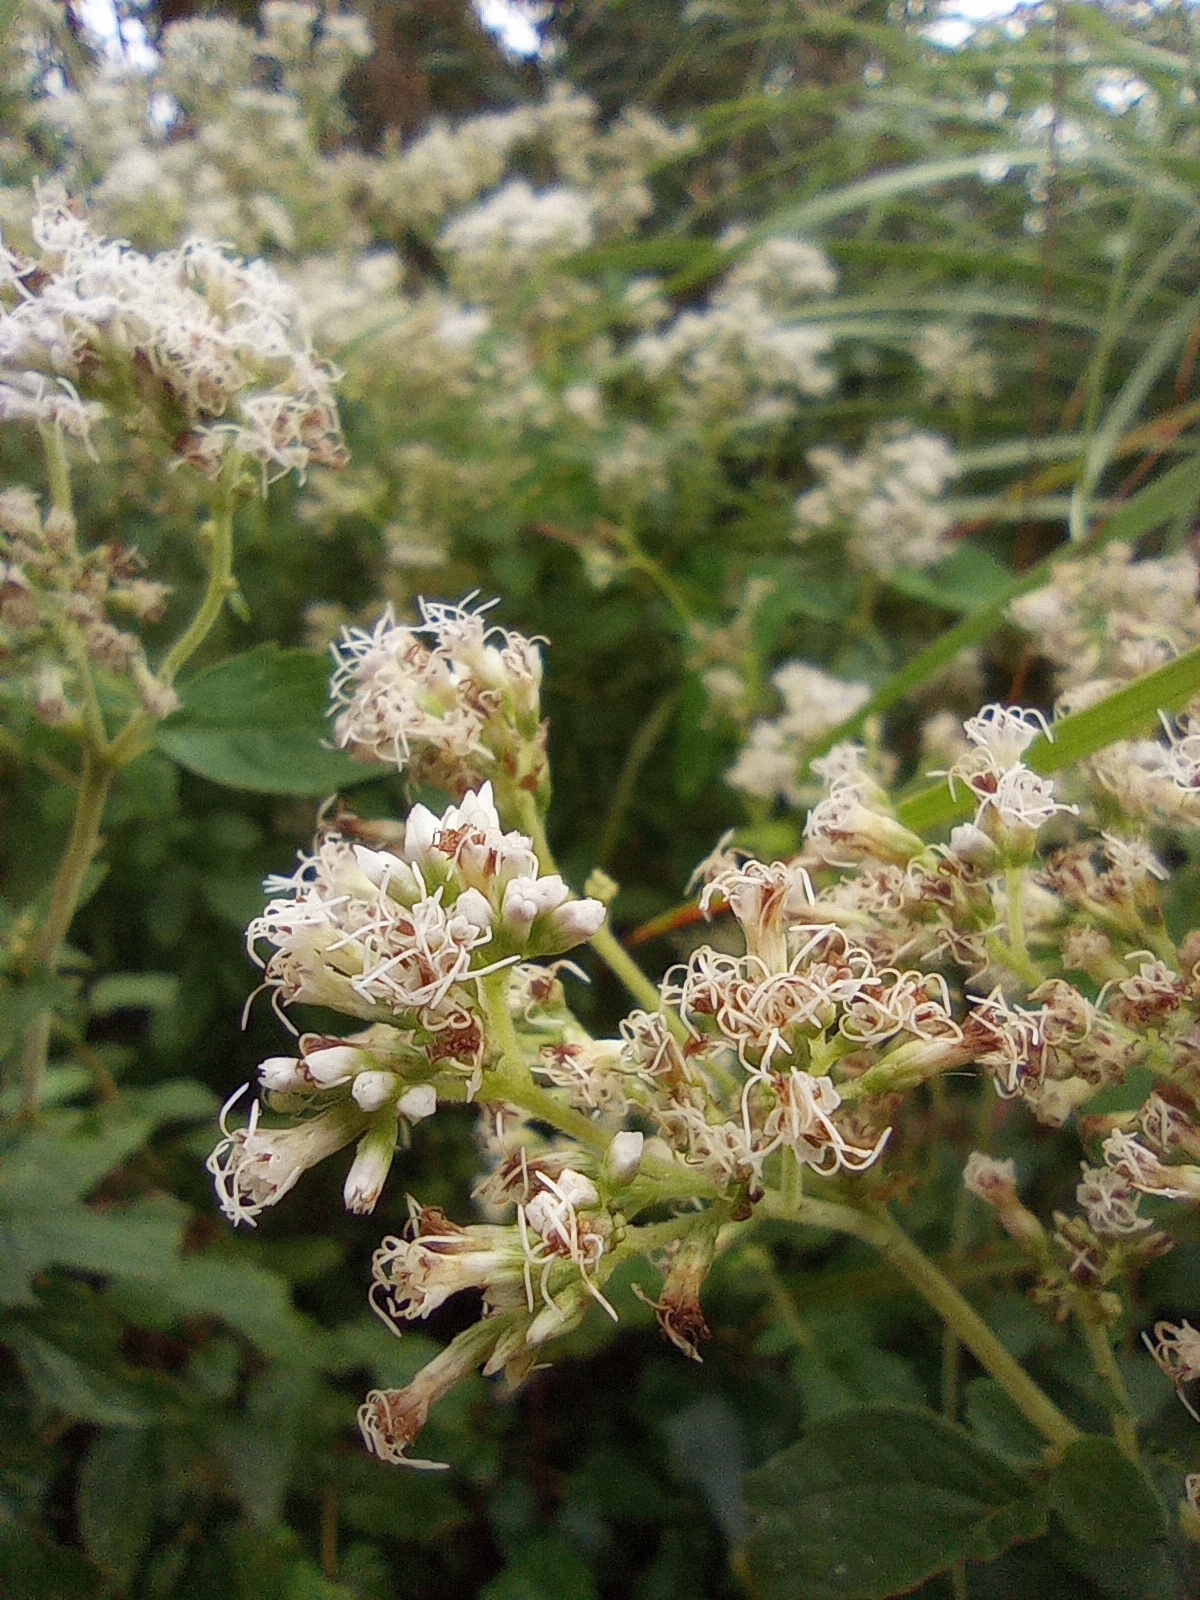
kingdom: Plantae
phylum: Tracheophyta
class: Magnoliopsida
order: Asterales
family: Asteraceae
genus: Eupatorium
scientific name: Eupatorium formosanum
